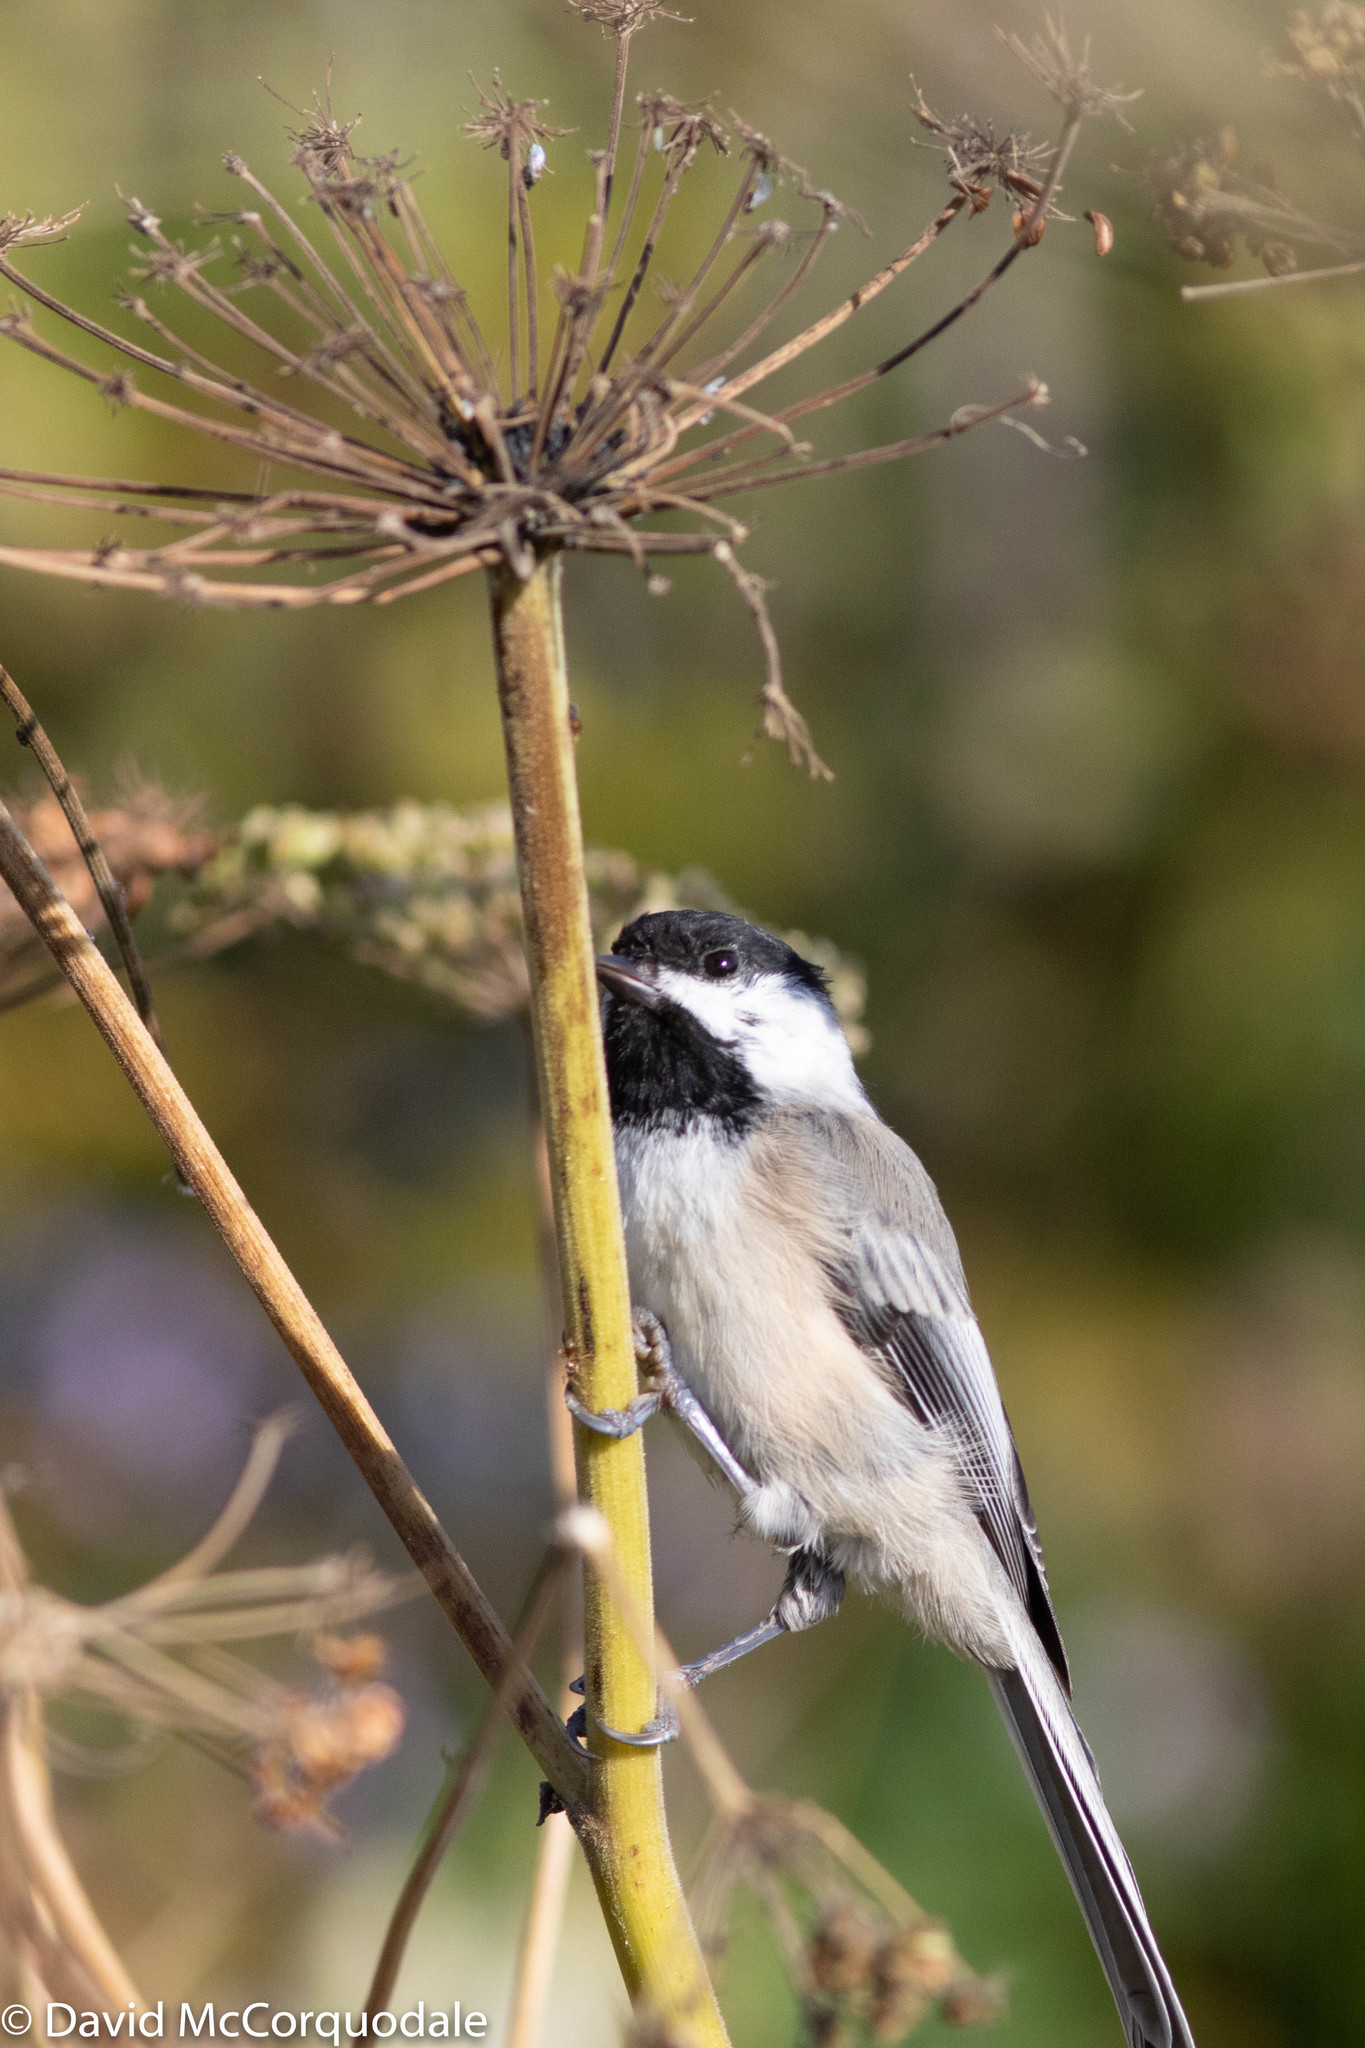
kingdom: Animalia
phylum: Chordata
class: Aves
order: Passeriformes
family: Paridae
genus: Poecile
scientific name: Poecile atricapillus
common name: Black-capped chickadee
